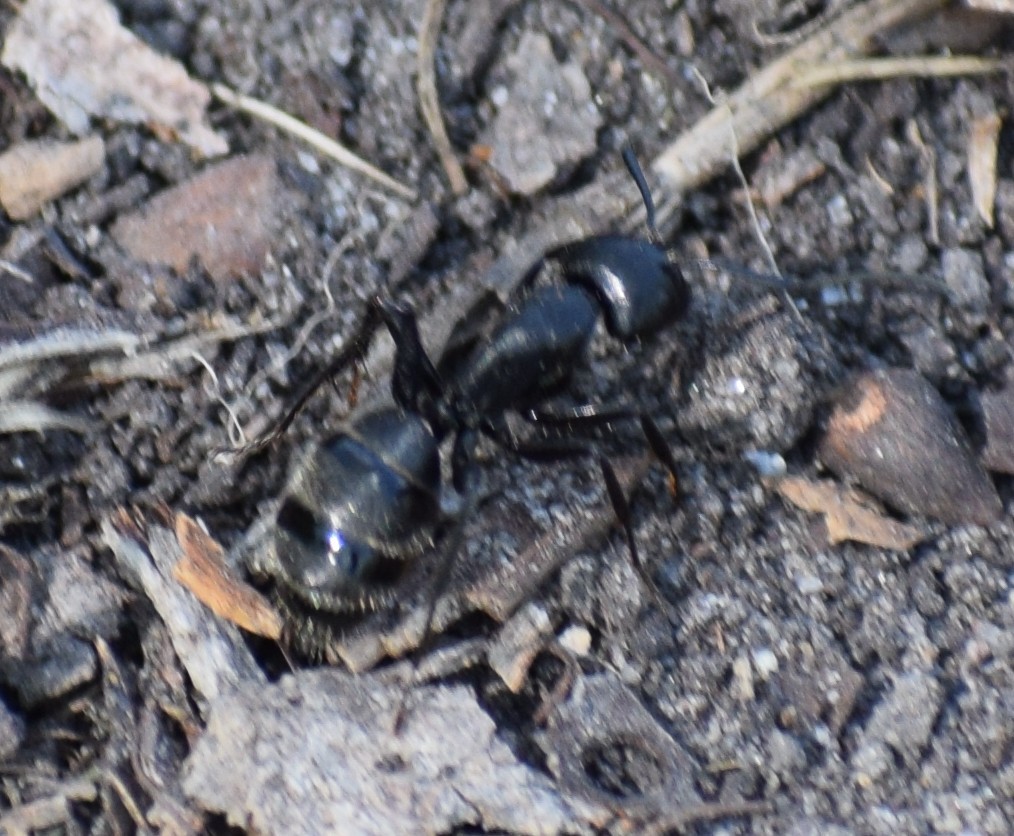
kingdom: Animalia
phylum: Arthropoda
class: Insecta
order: Hymenoptera
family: Formicidae
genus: Camponotus
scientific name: Camponotus vagus
